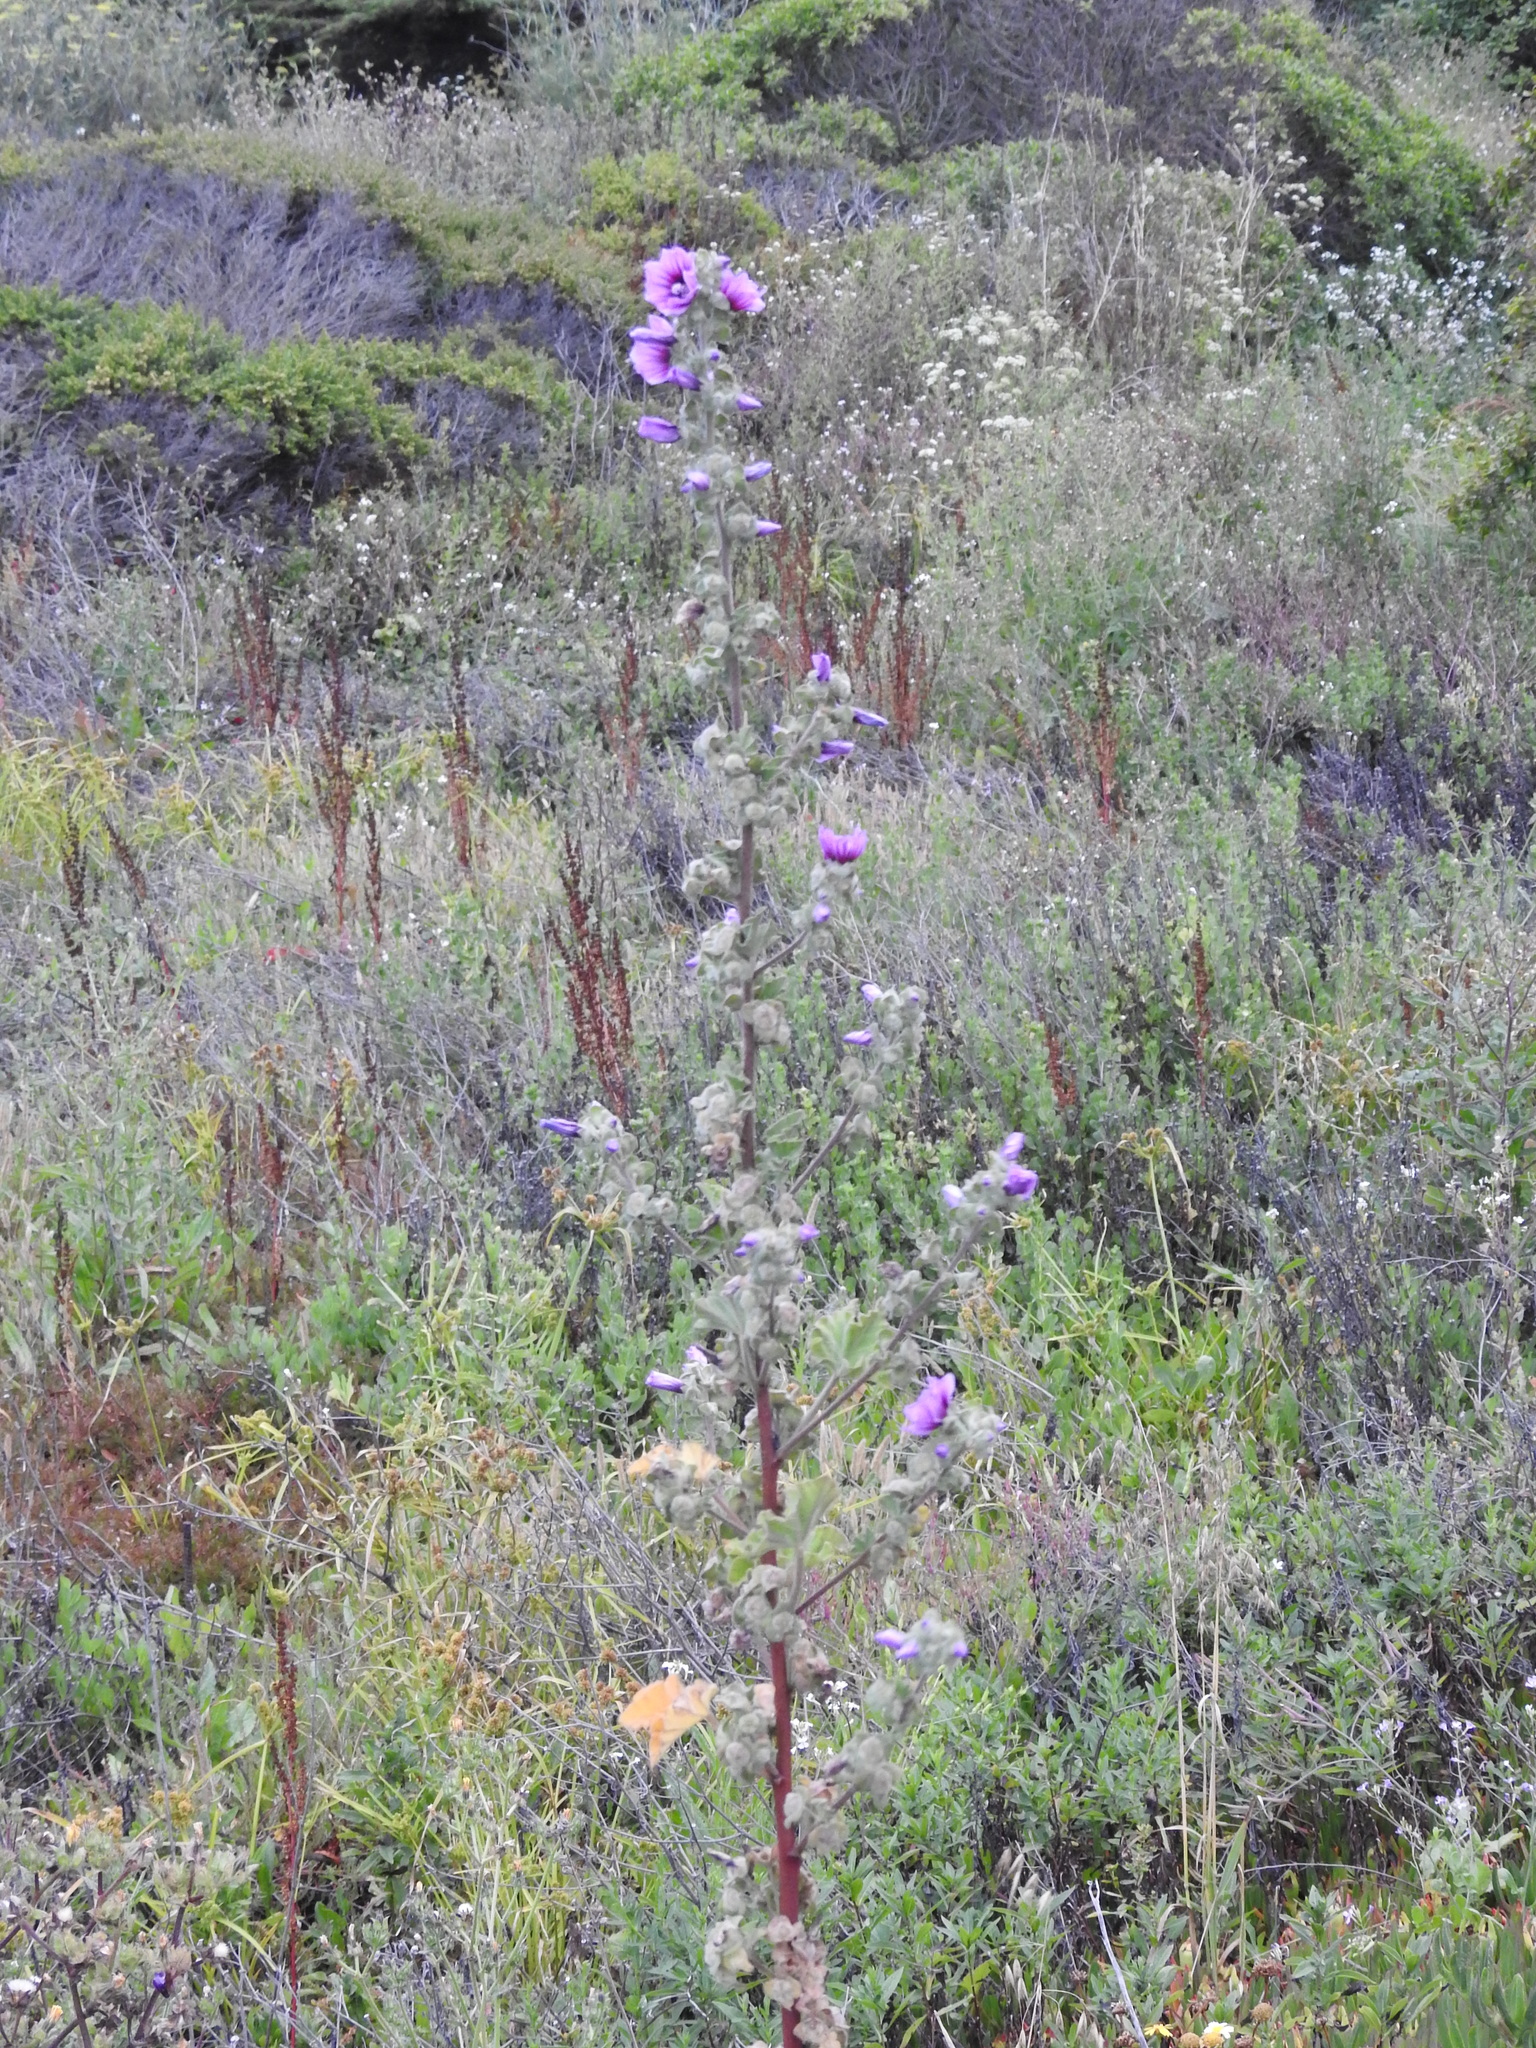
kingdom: Plantae
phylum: Tracheophyta
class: Magnoliopsida
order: Malvales
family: Malvaceae
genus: Malva
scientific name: Malva arborea
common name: Tree mallow
